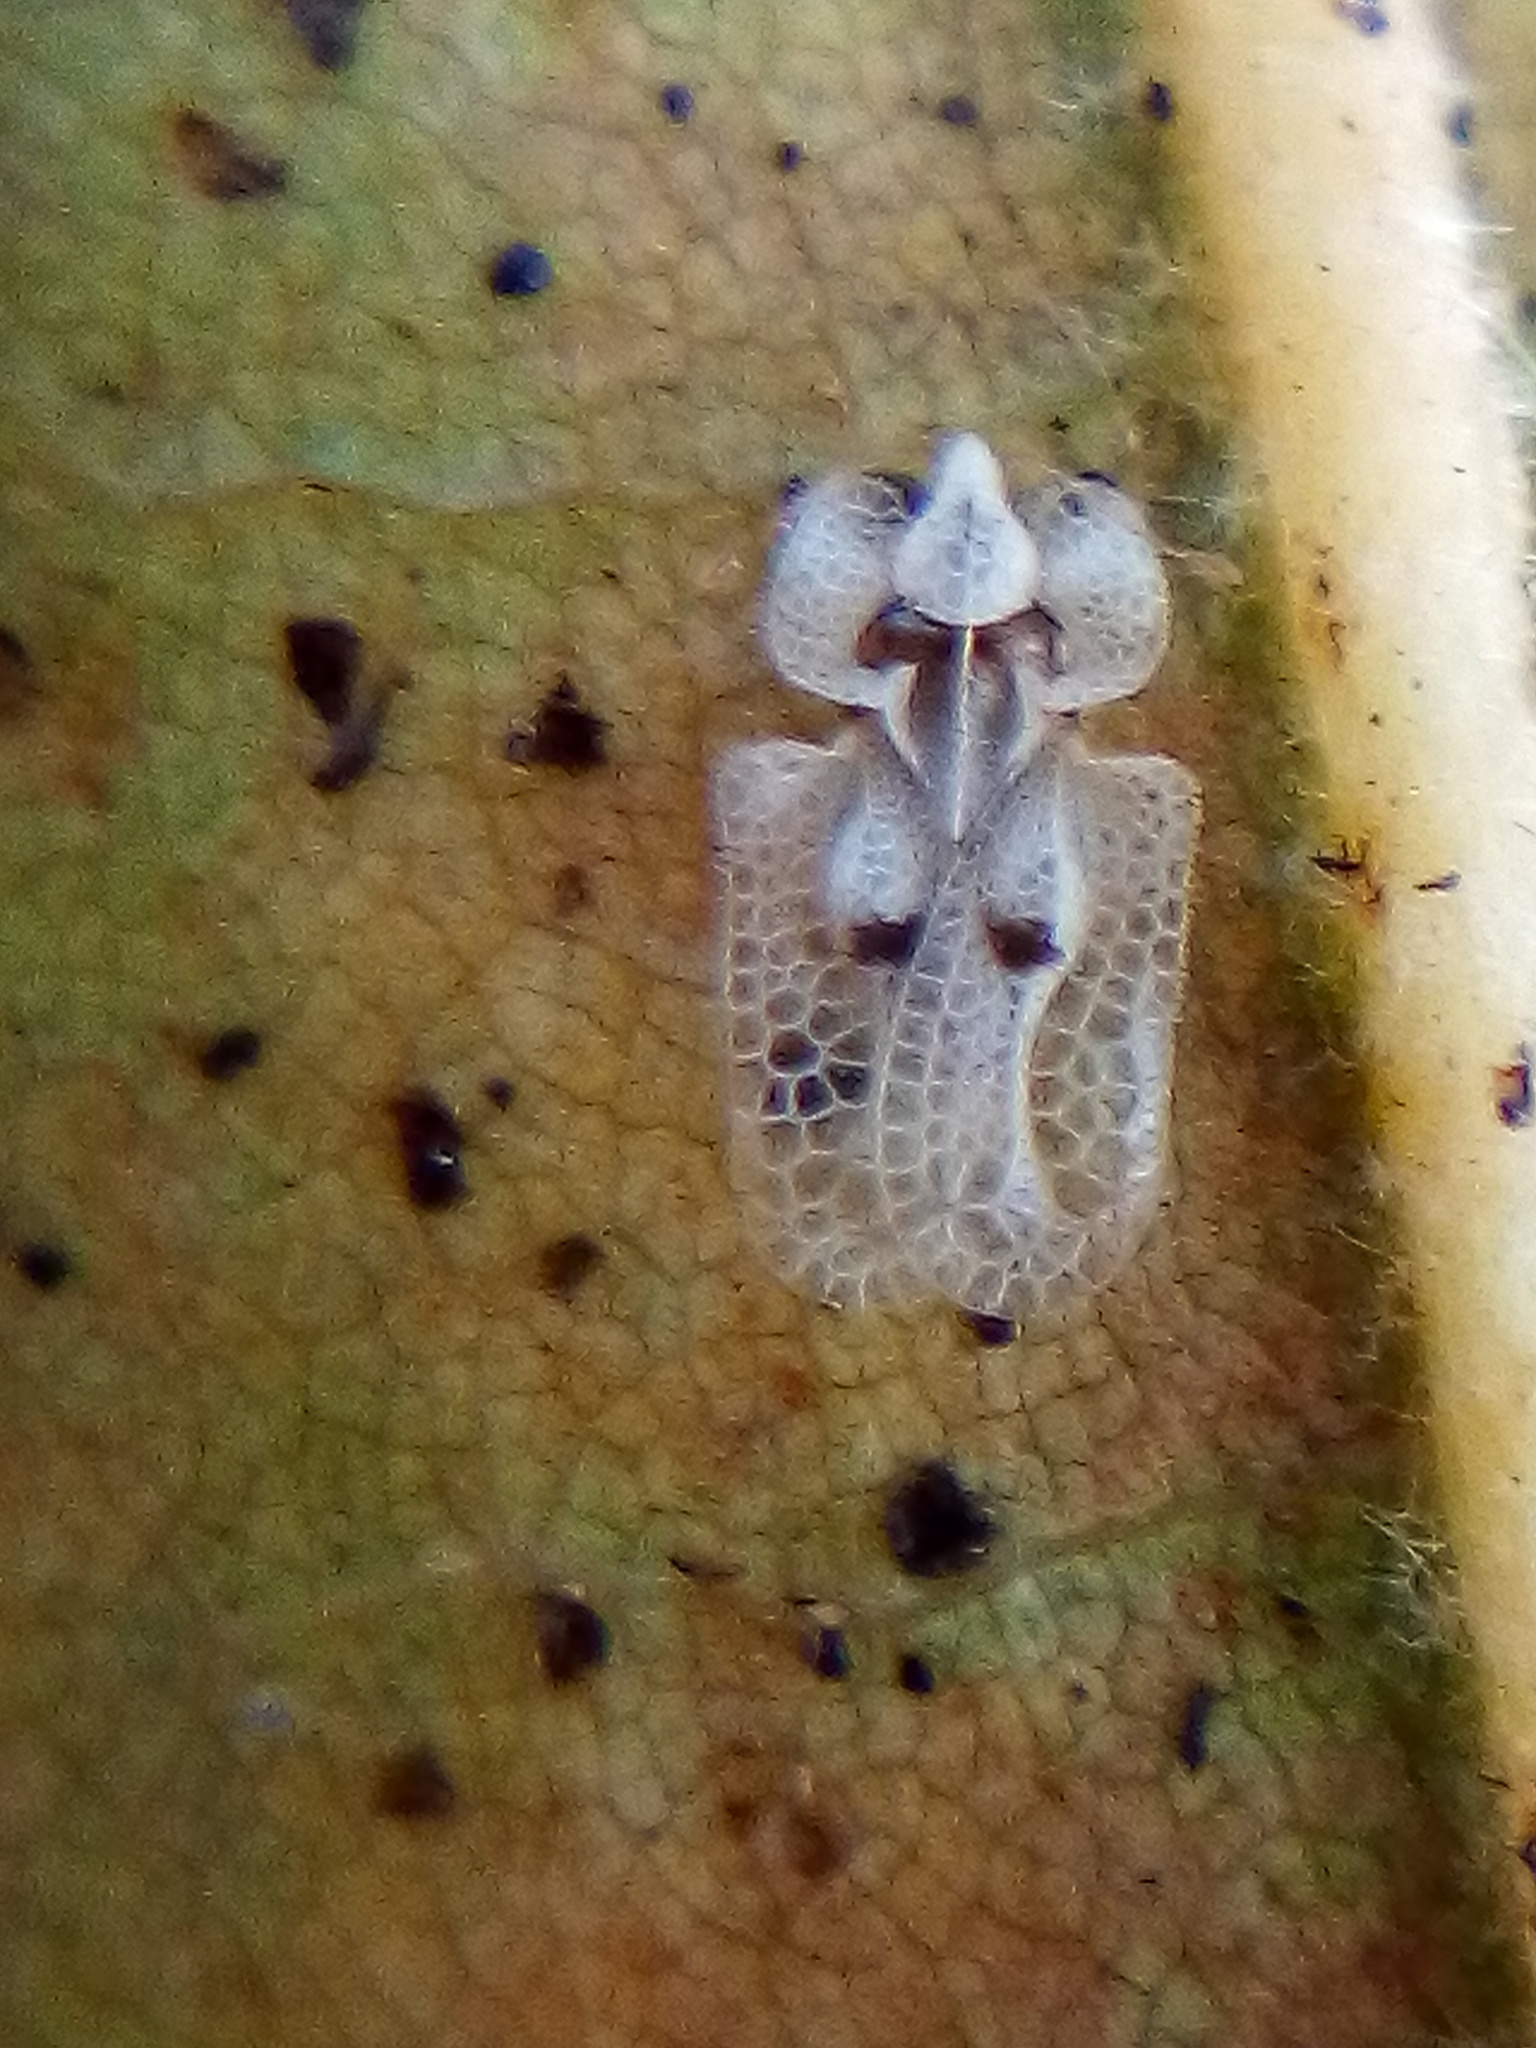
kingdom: Animalia
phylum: Arthropoda
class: Insecta
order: Hemiptera
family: Tingidae
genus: Corythucha
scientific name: Corythucha ciliata
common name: Sycamore lace bug
